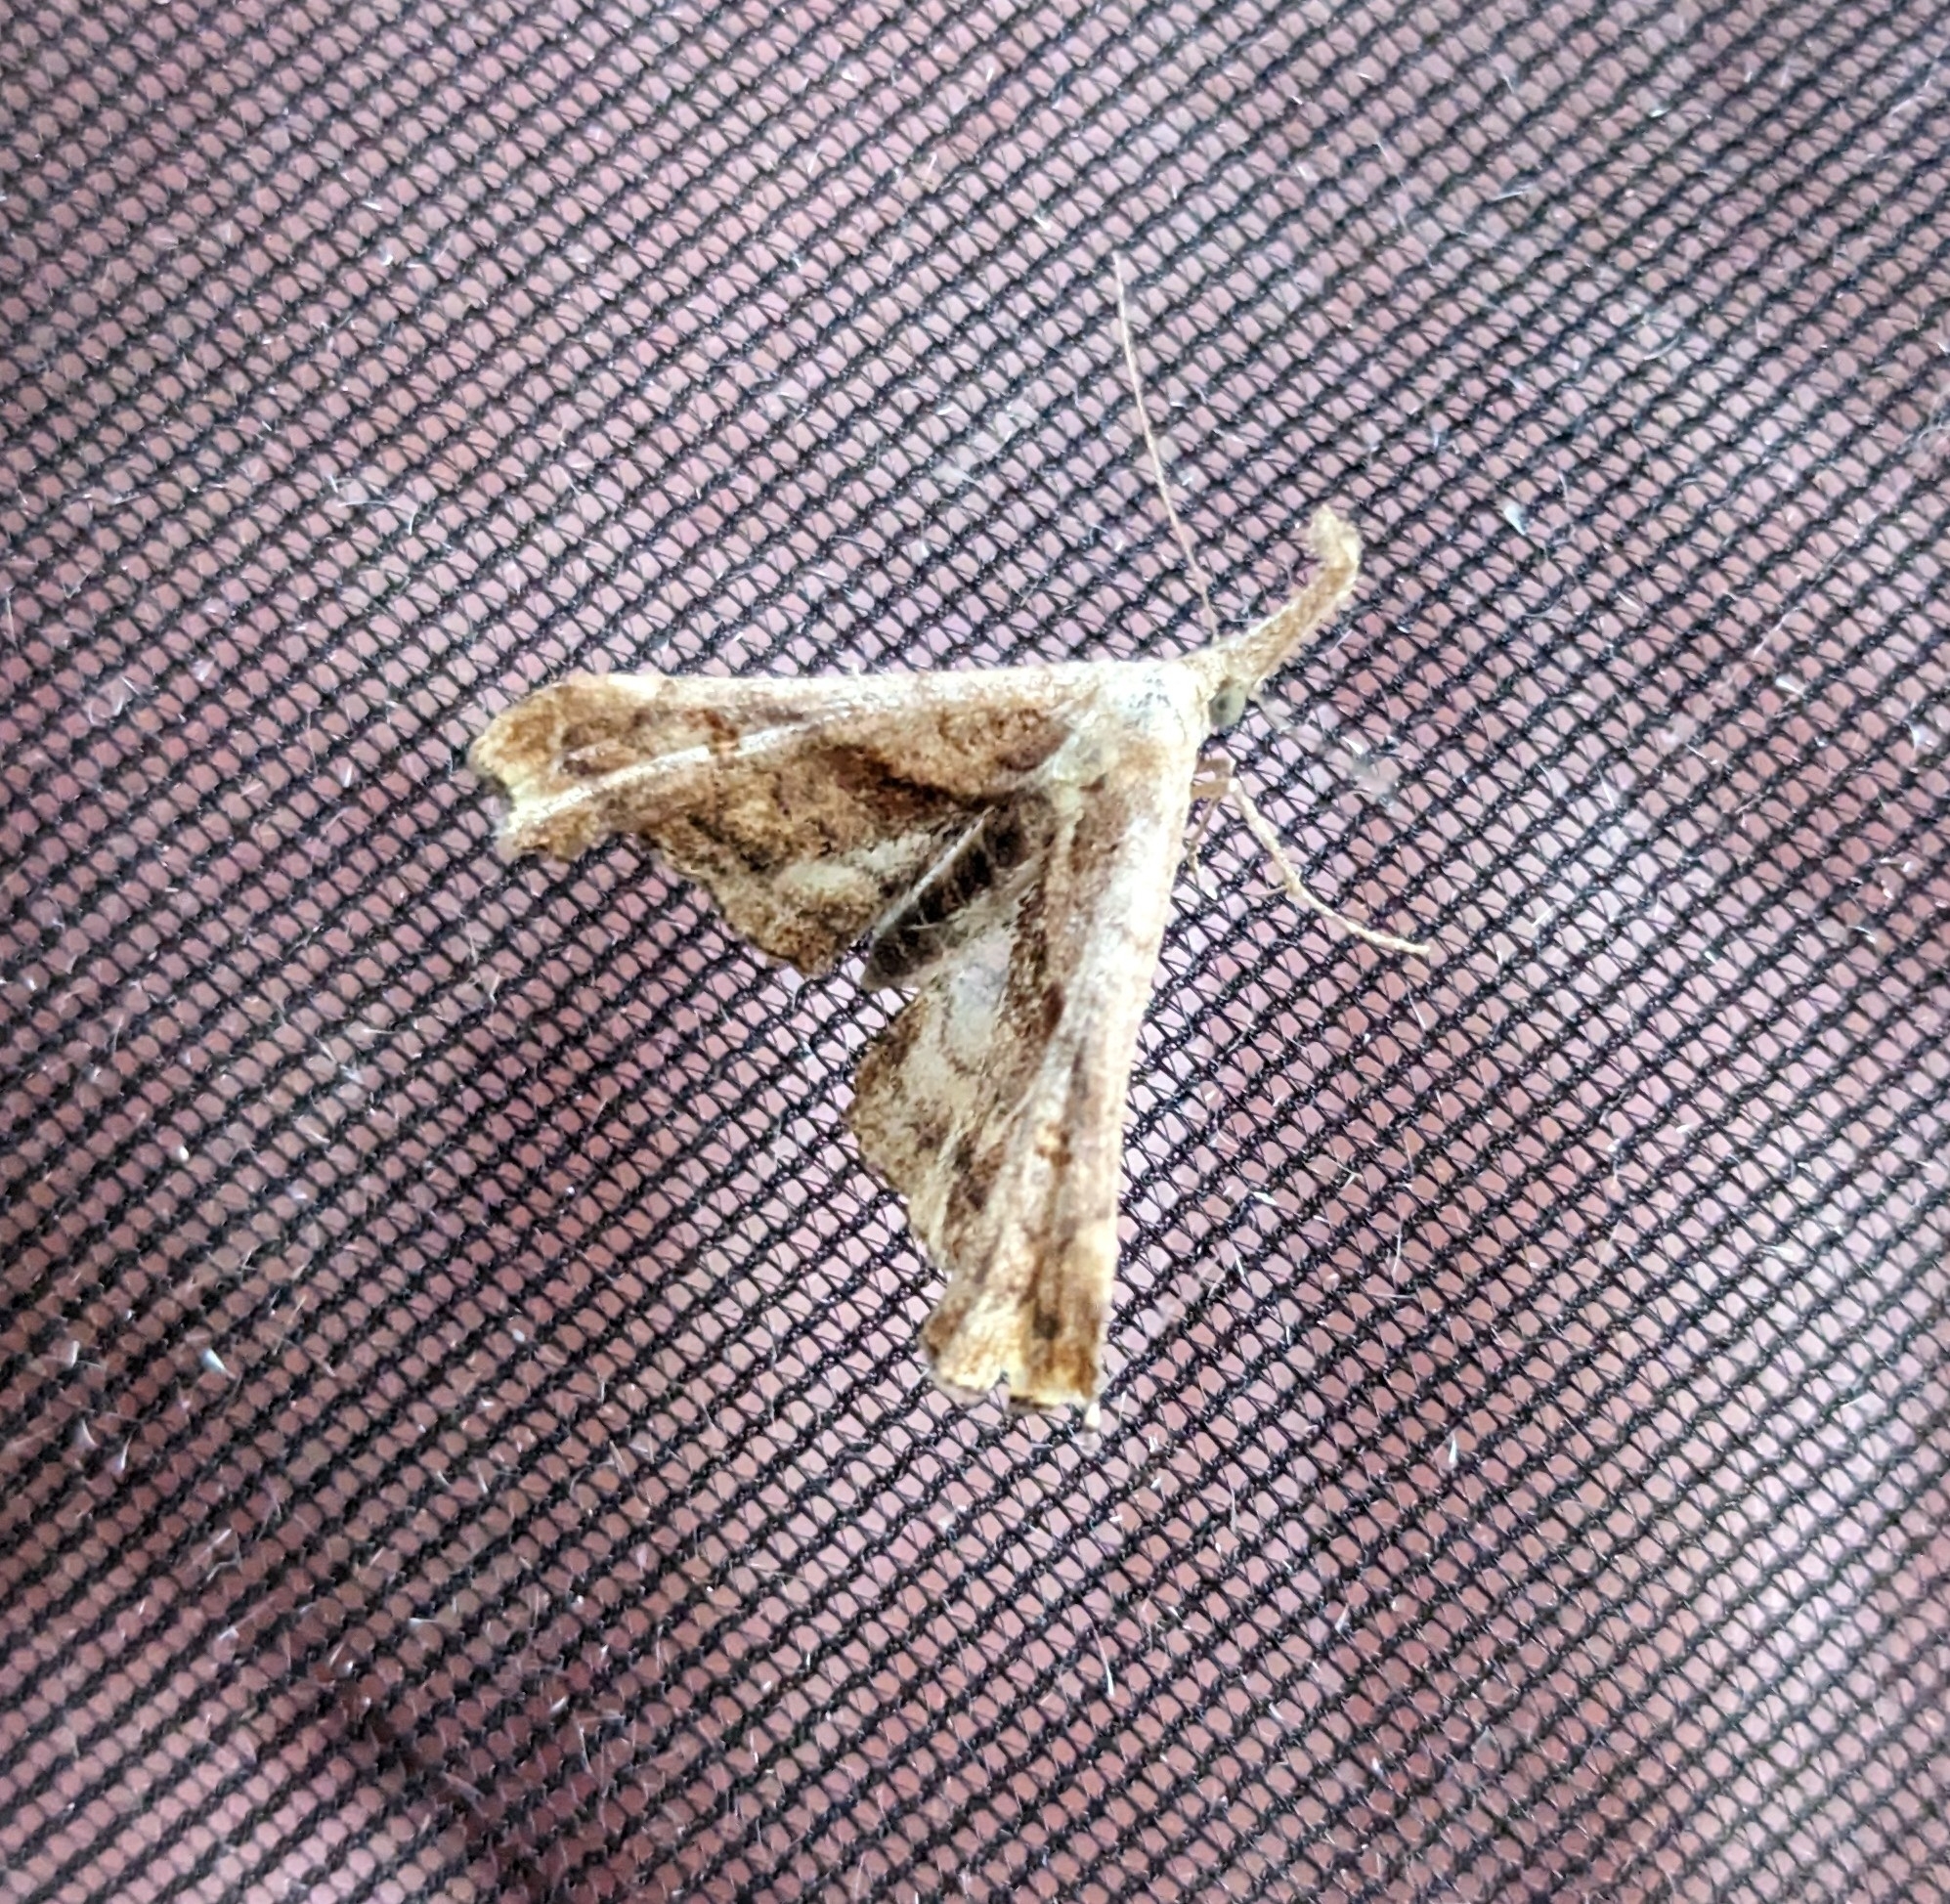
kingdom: Animalia
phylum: Arthropoda
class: Insecta
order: Lepidoptera
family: Erebidae
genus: Palthis
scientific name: Palthis angulalis
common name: Dark-spotted palthis moth
